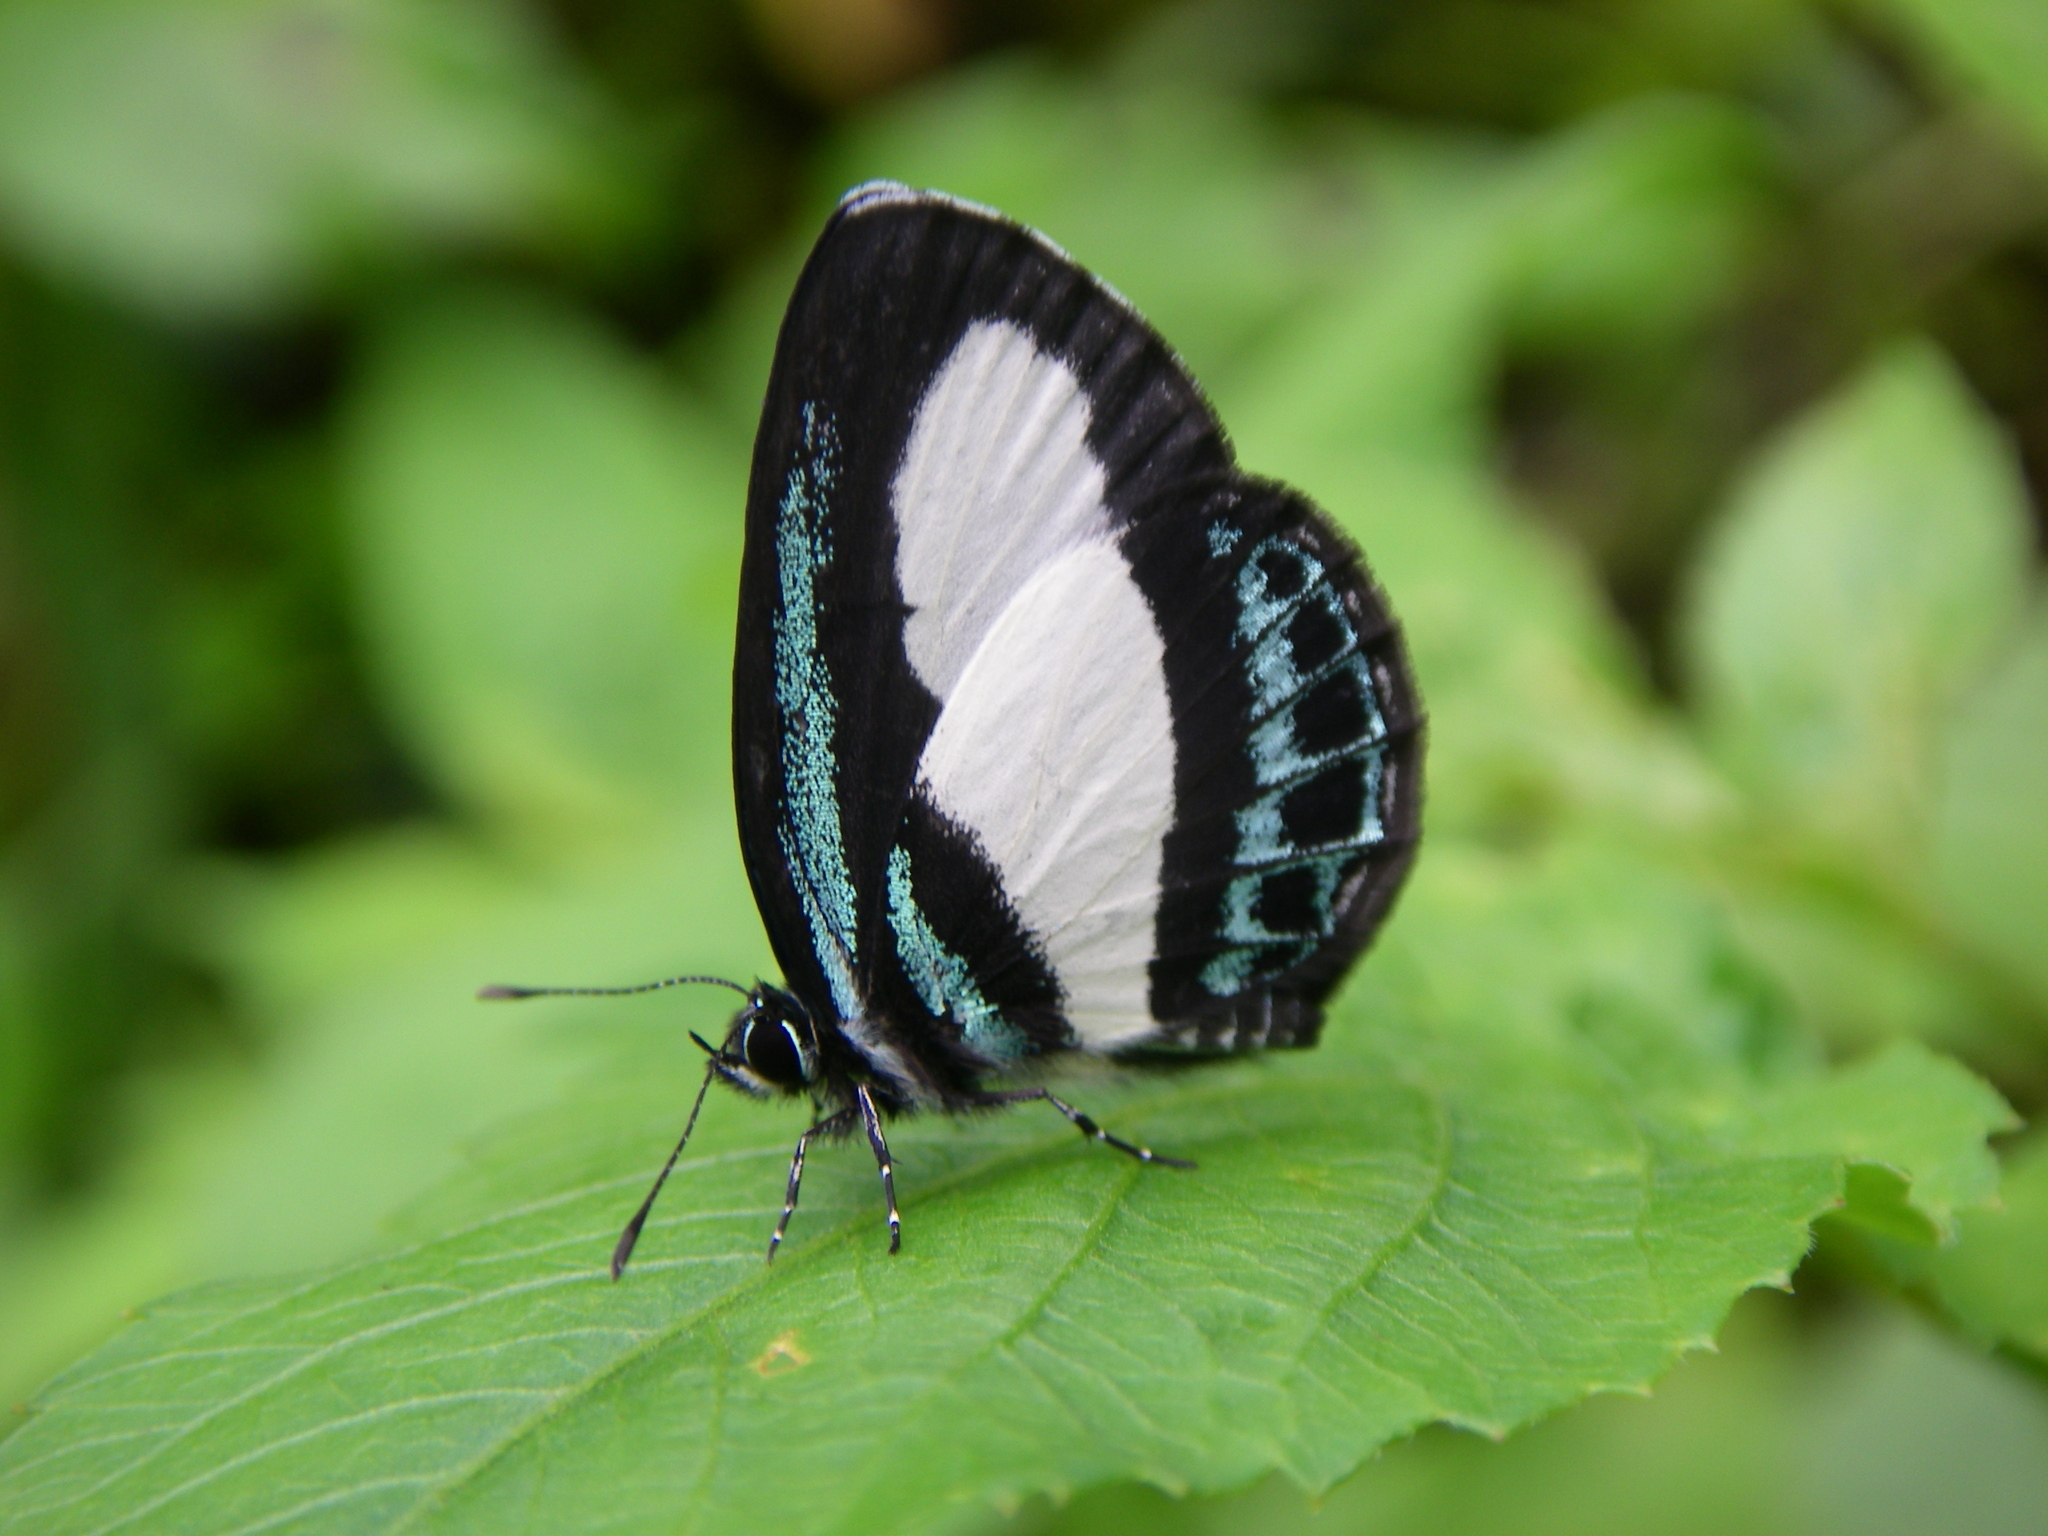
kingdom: Animalia
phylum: Arthropoda
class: Insecta
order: Lepidoptera
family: Lycaenidae
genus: Psychonotis
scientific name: Psychonotis caelius
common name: Small green banded blue
